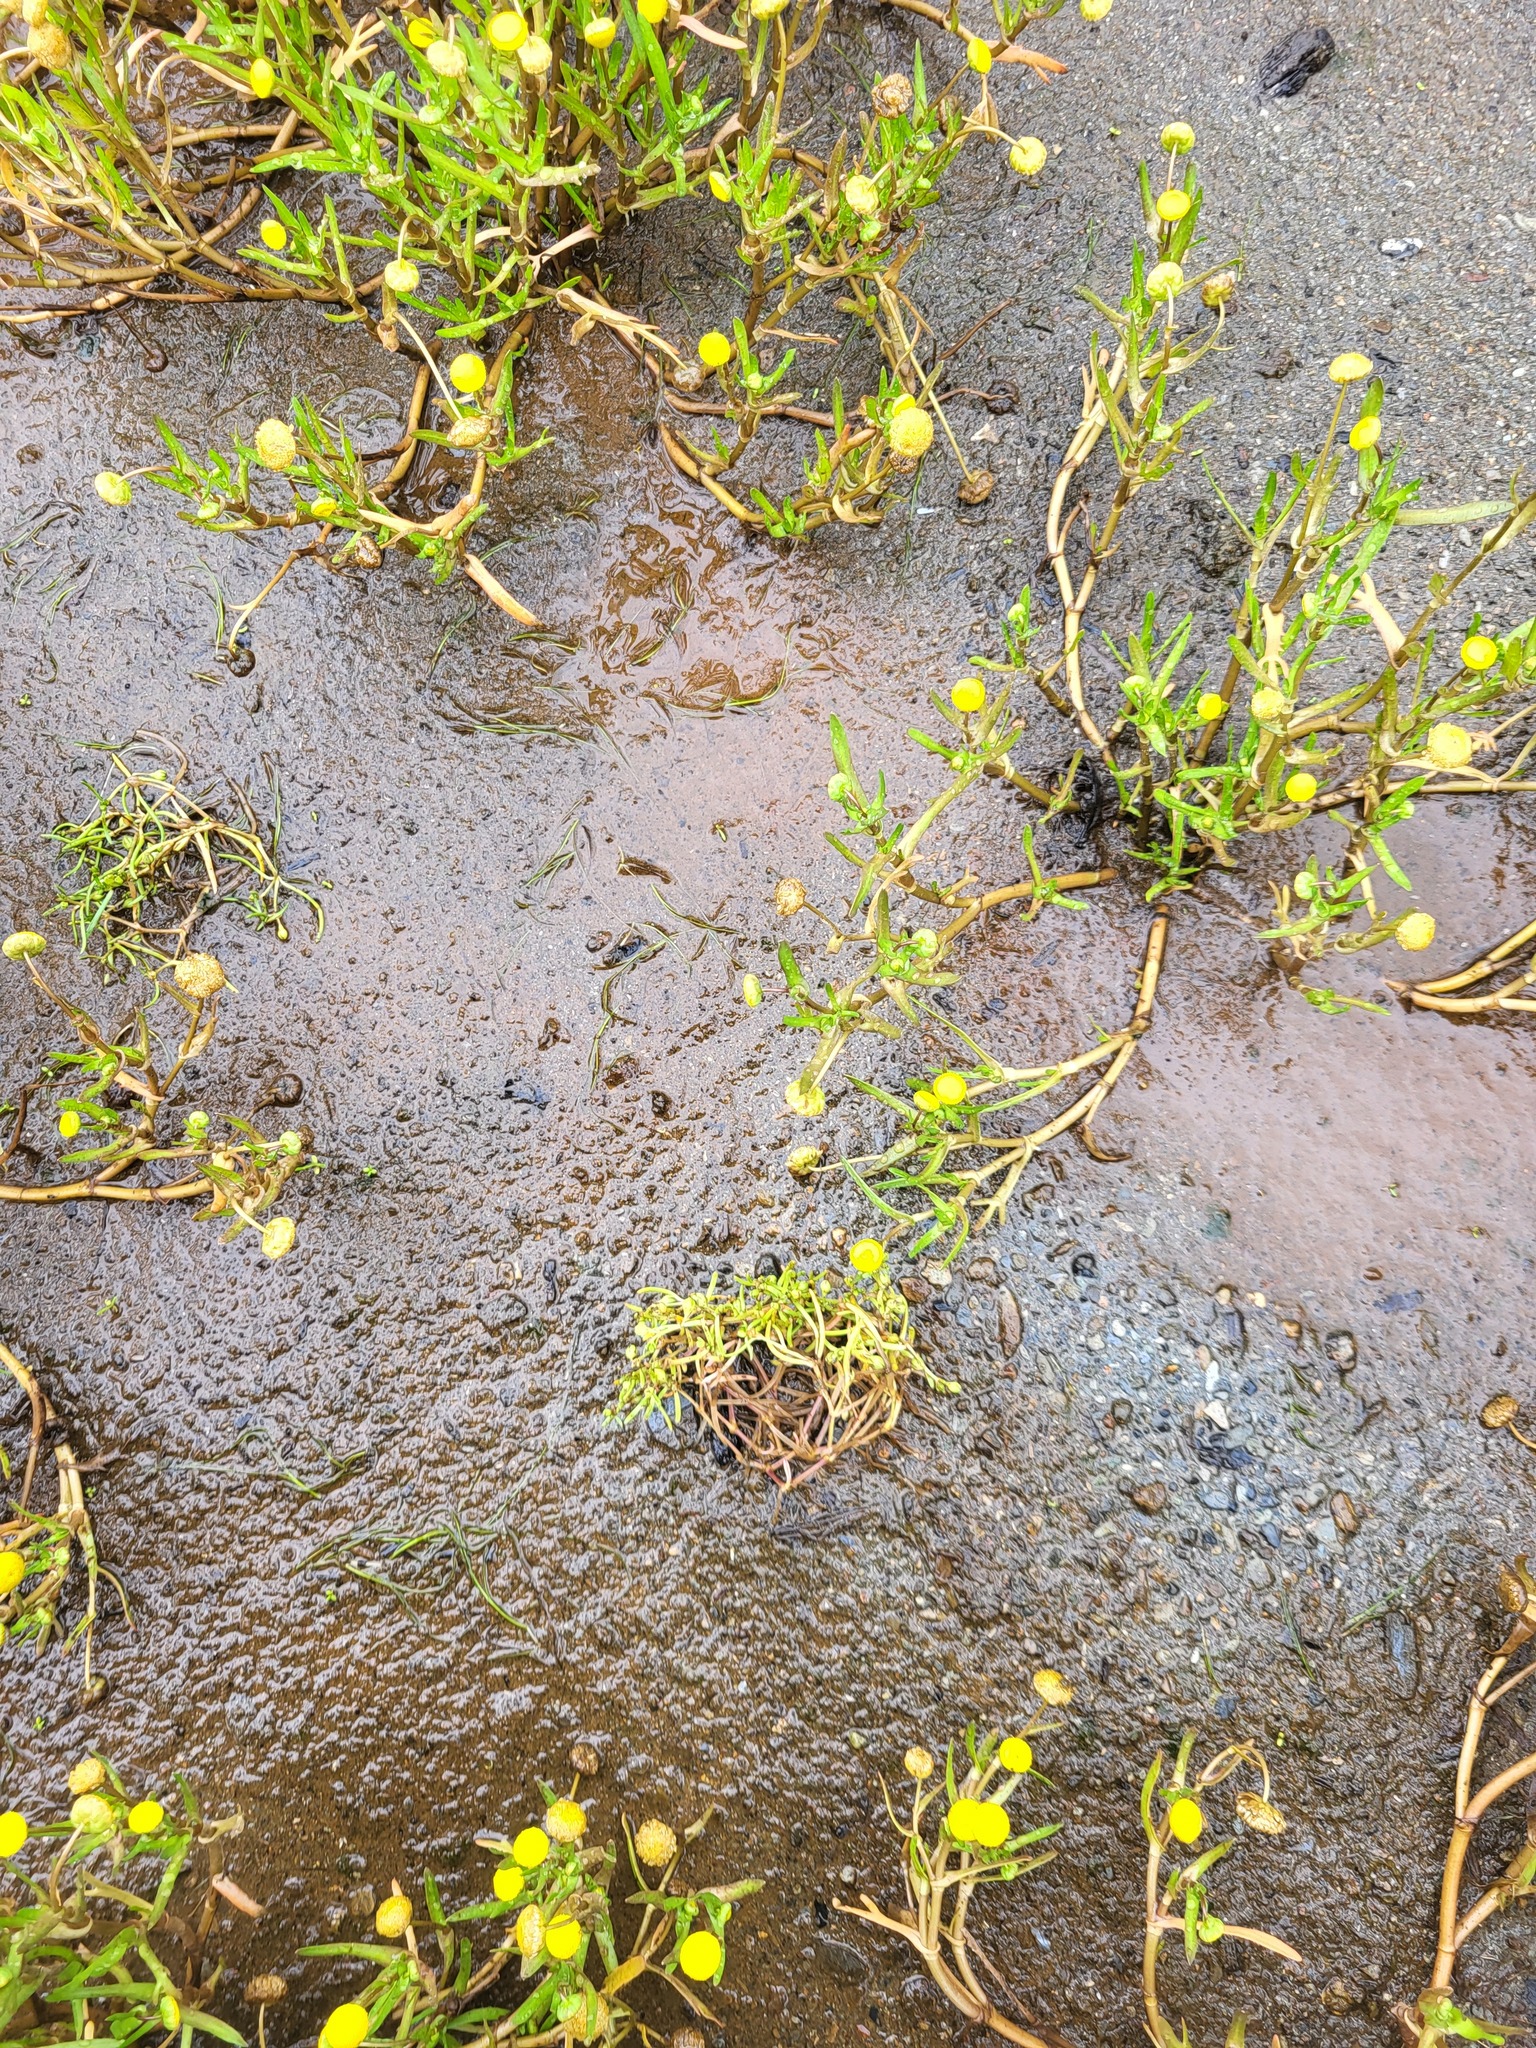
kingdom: Plantae
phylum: Tracheophyta
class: Magnoliopsida
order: Caryophyllales
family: Caryophyllaceae
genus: Spergularia
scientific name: Spergularia canadensis
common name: Canada sand-spurrey
